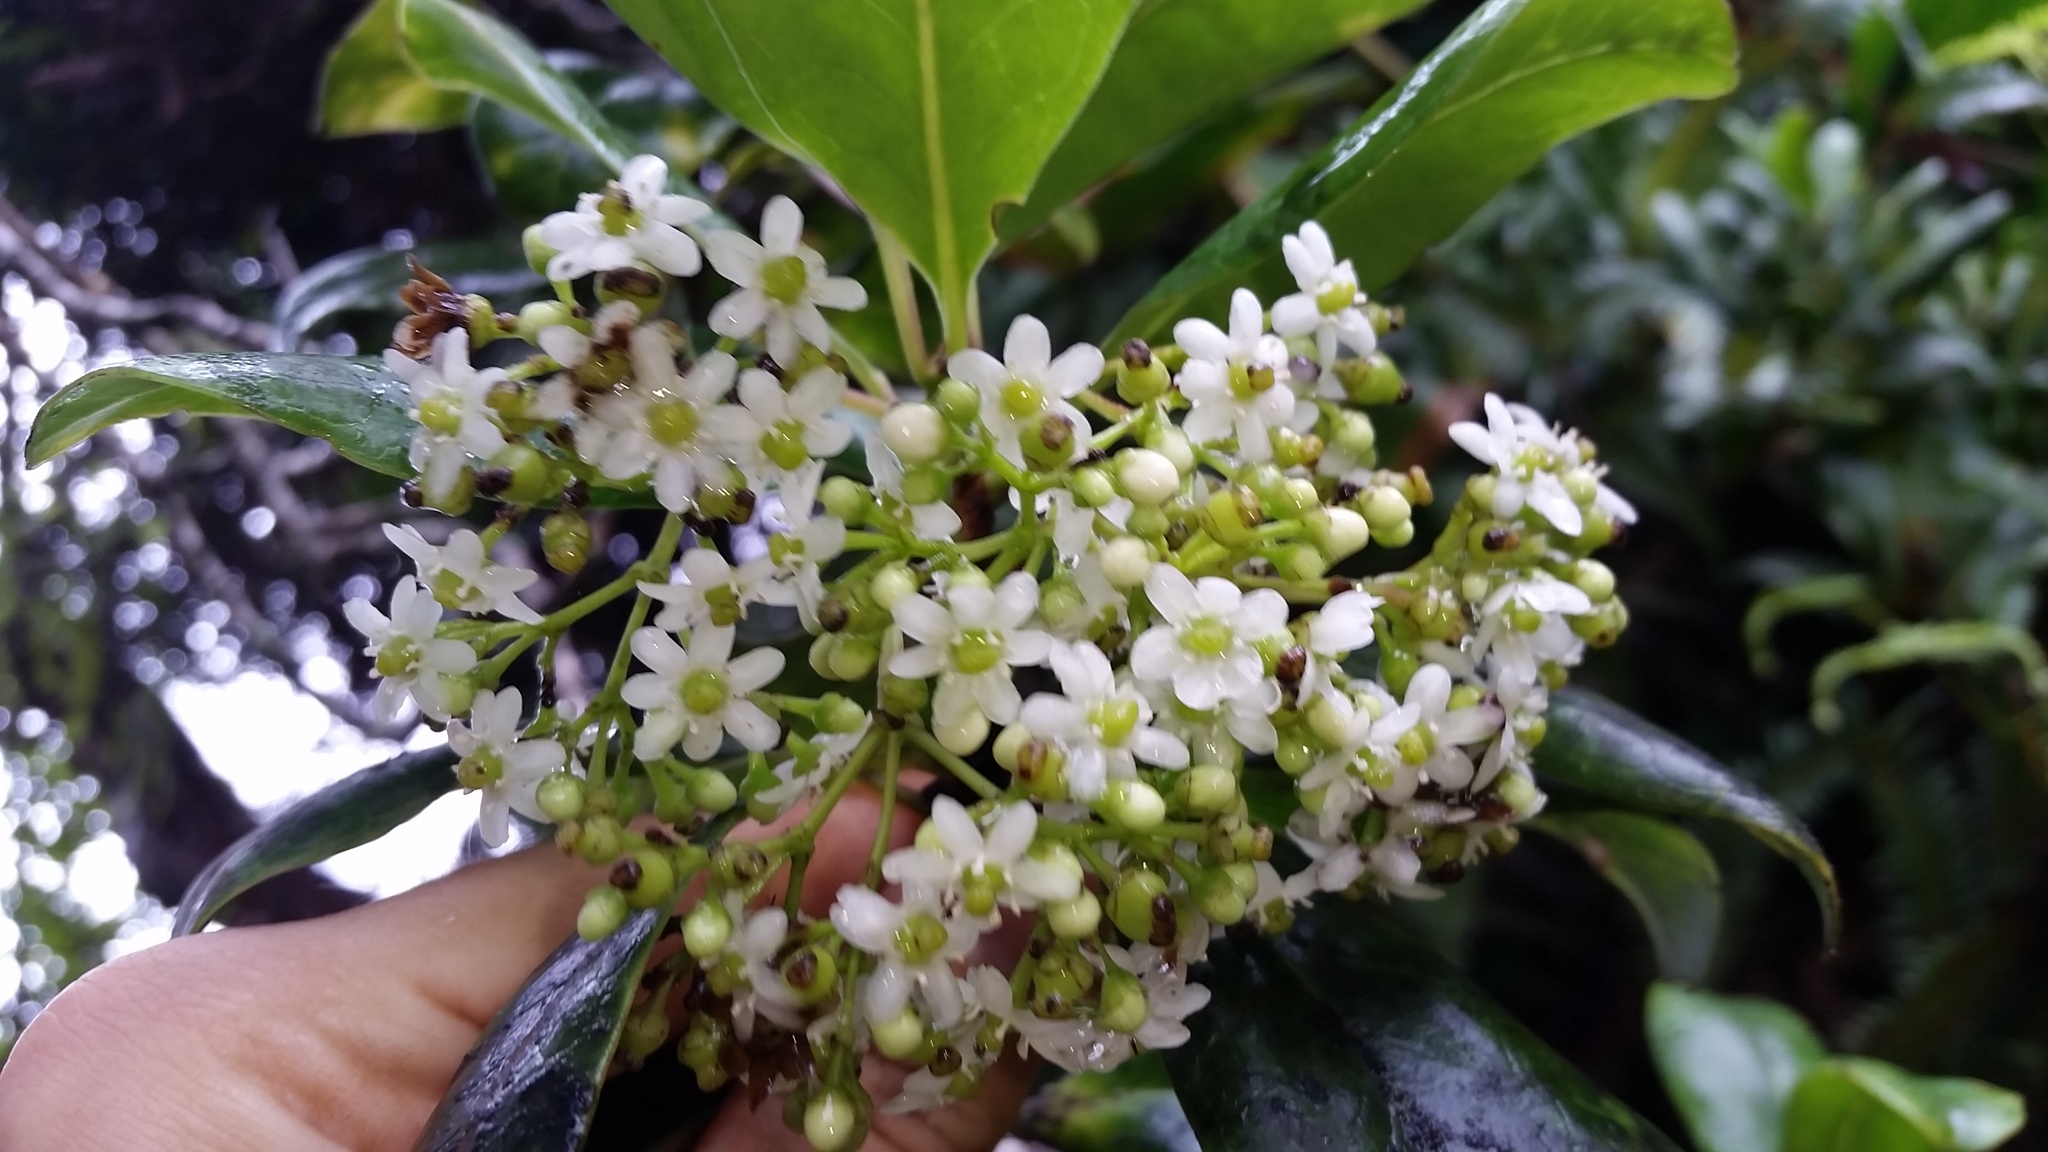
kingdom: Plantae
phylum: Tracheophyta
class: Magnoliopsida
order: Aquifoliales
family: Aquifoliaceae
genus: Ilex
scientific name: Ilex anomala
